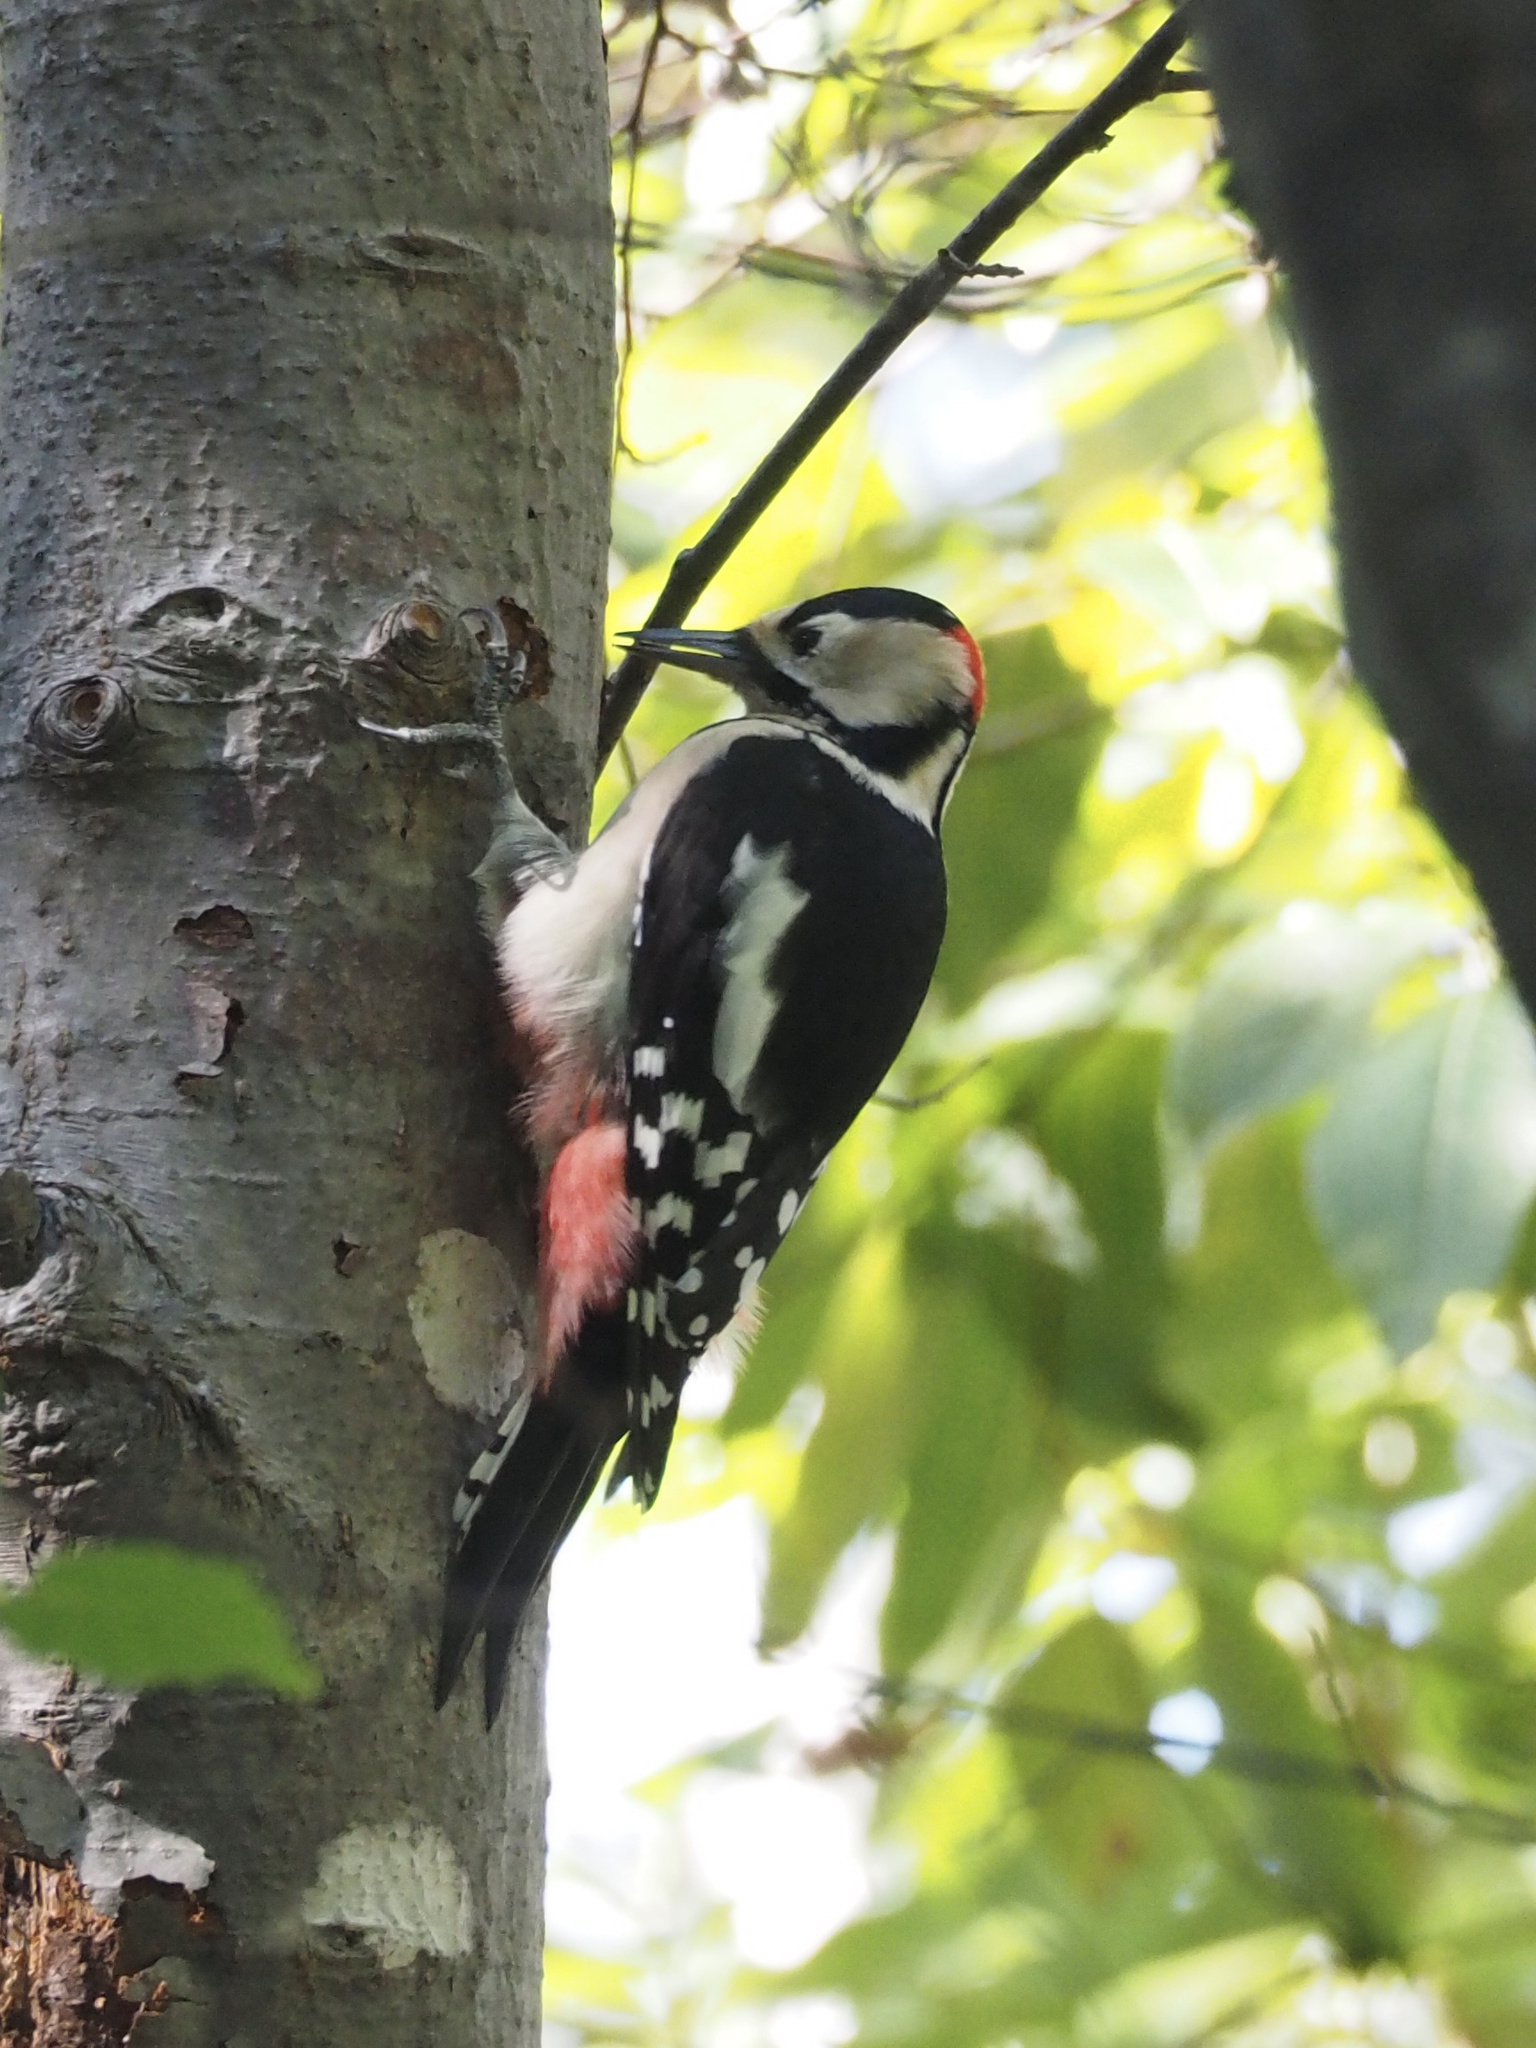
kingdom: Animalia
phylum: Chordata
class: Aves
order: Piciformes
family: Picidae
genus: Dendrocopos
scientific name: Dendrocopos major
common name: Great spotted woodpecker
